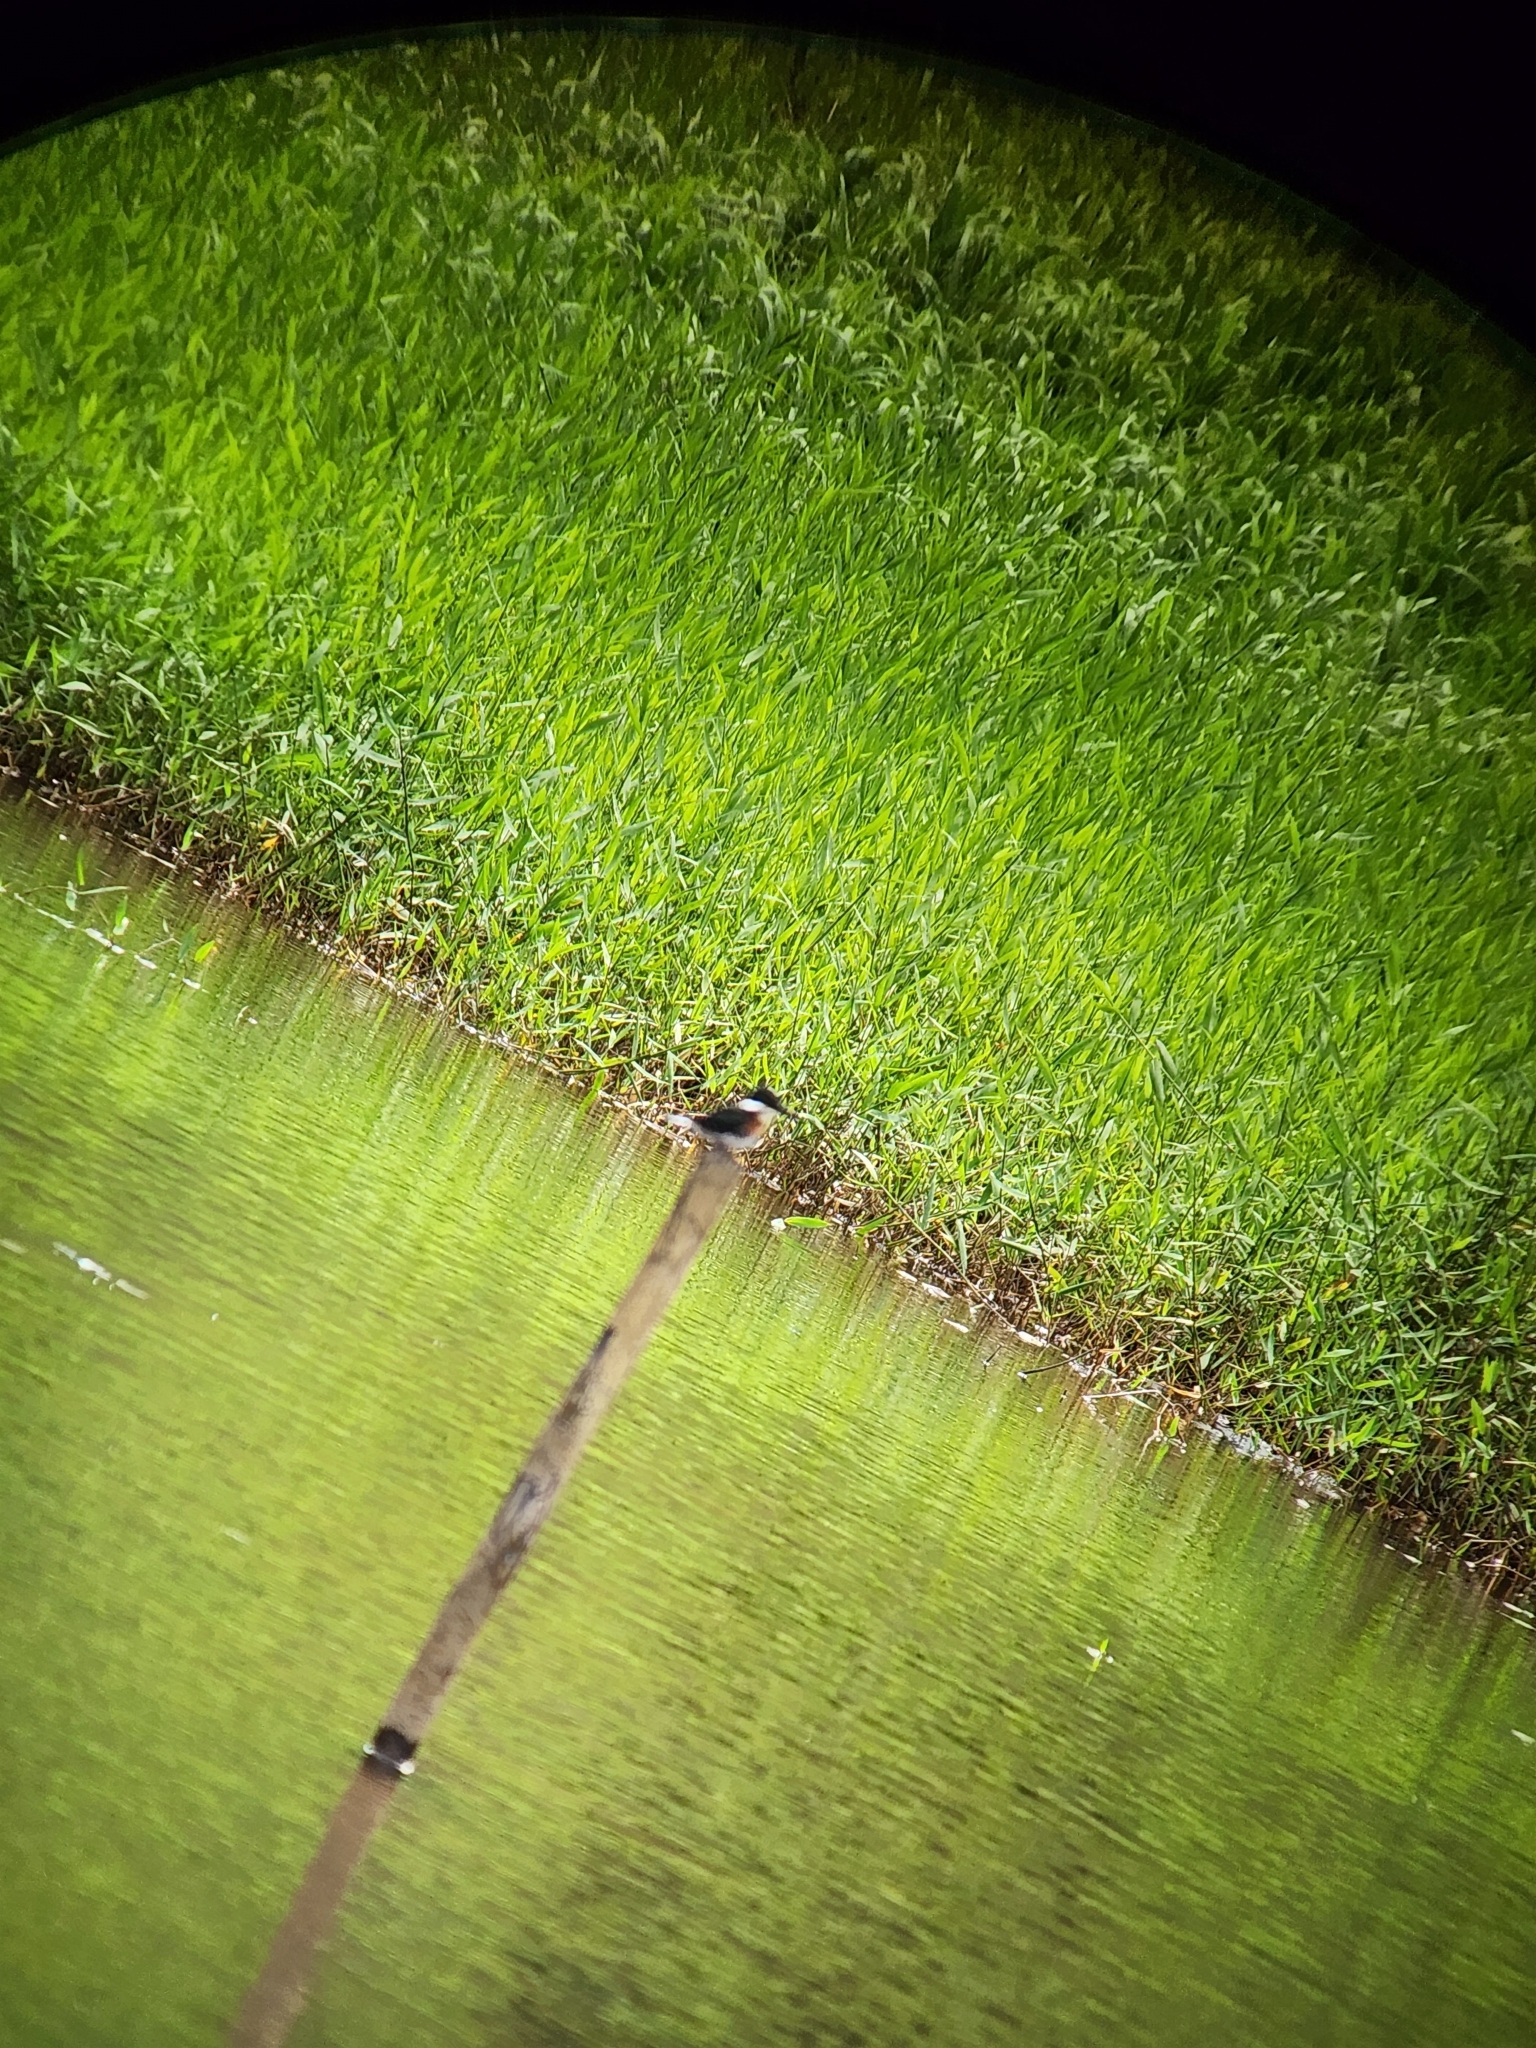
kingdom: Animalia
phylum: Chordata
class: Aves
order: Coraciiformes
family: Alcedinidae
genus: Chloroceryle
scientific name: Chloroceryle americana
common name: Green kingfisher
